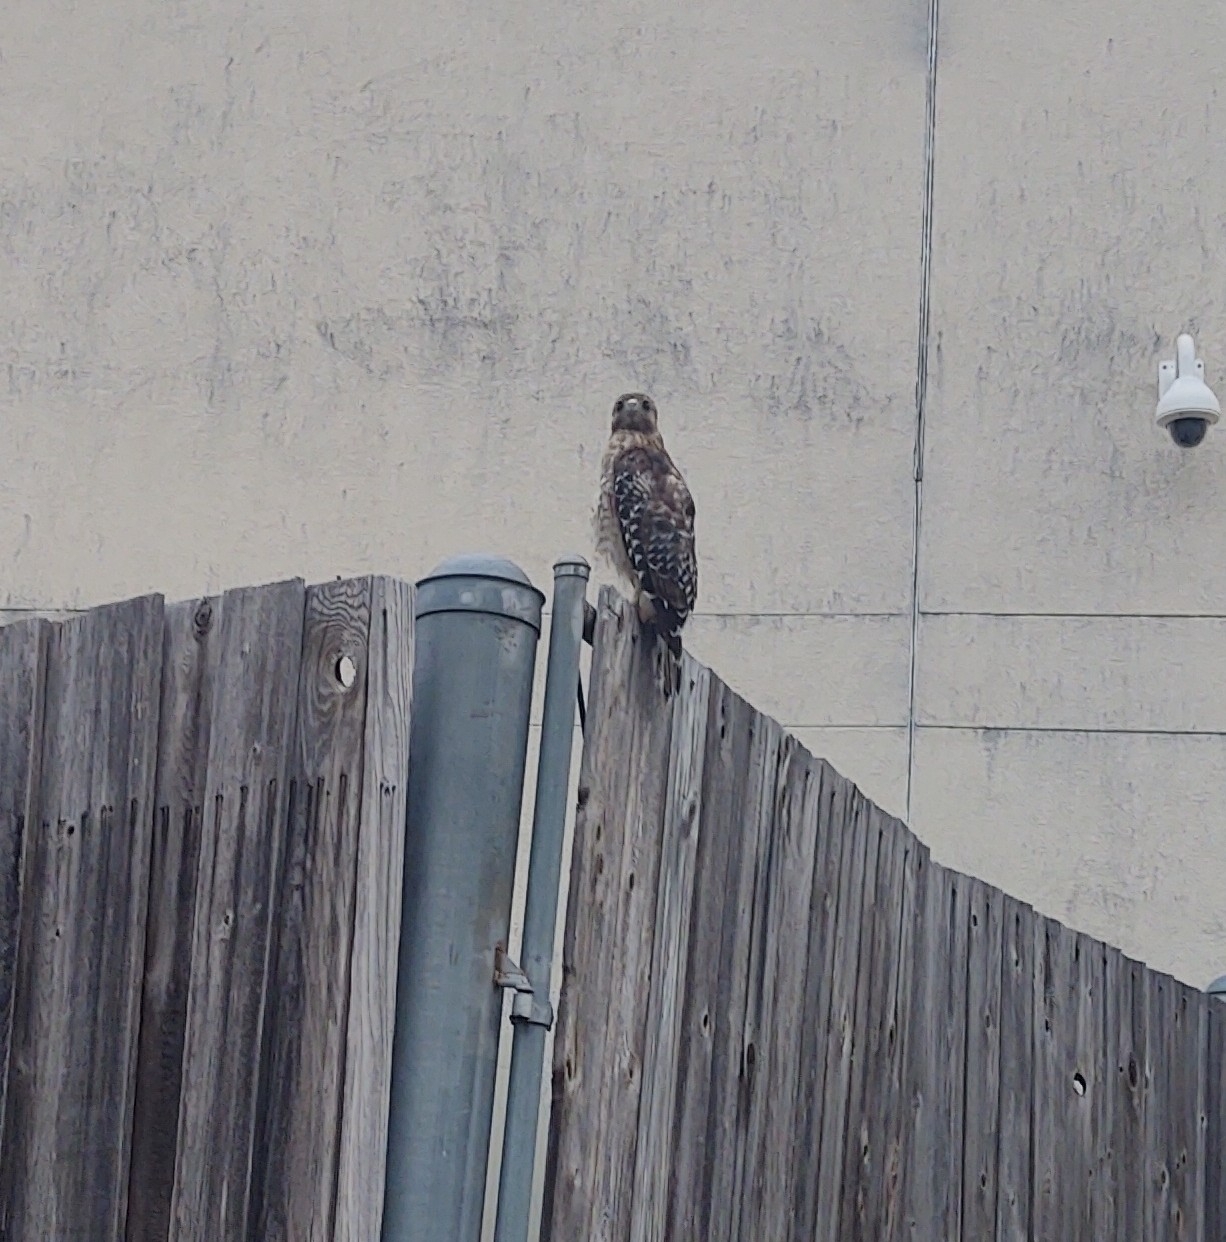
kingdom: Animalia
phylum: Chordata
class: Aves
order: Accipitriformes
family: Accipitridae
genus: Buteo
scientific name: Buteo lineatus
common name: Red-shouldered hawk
